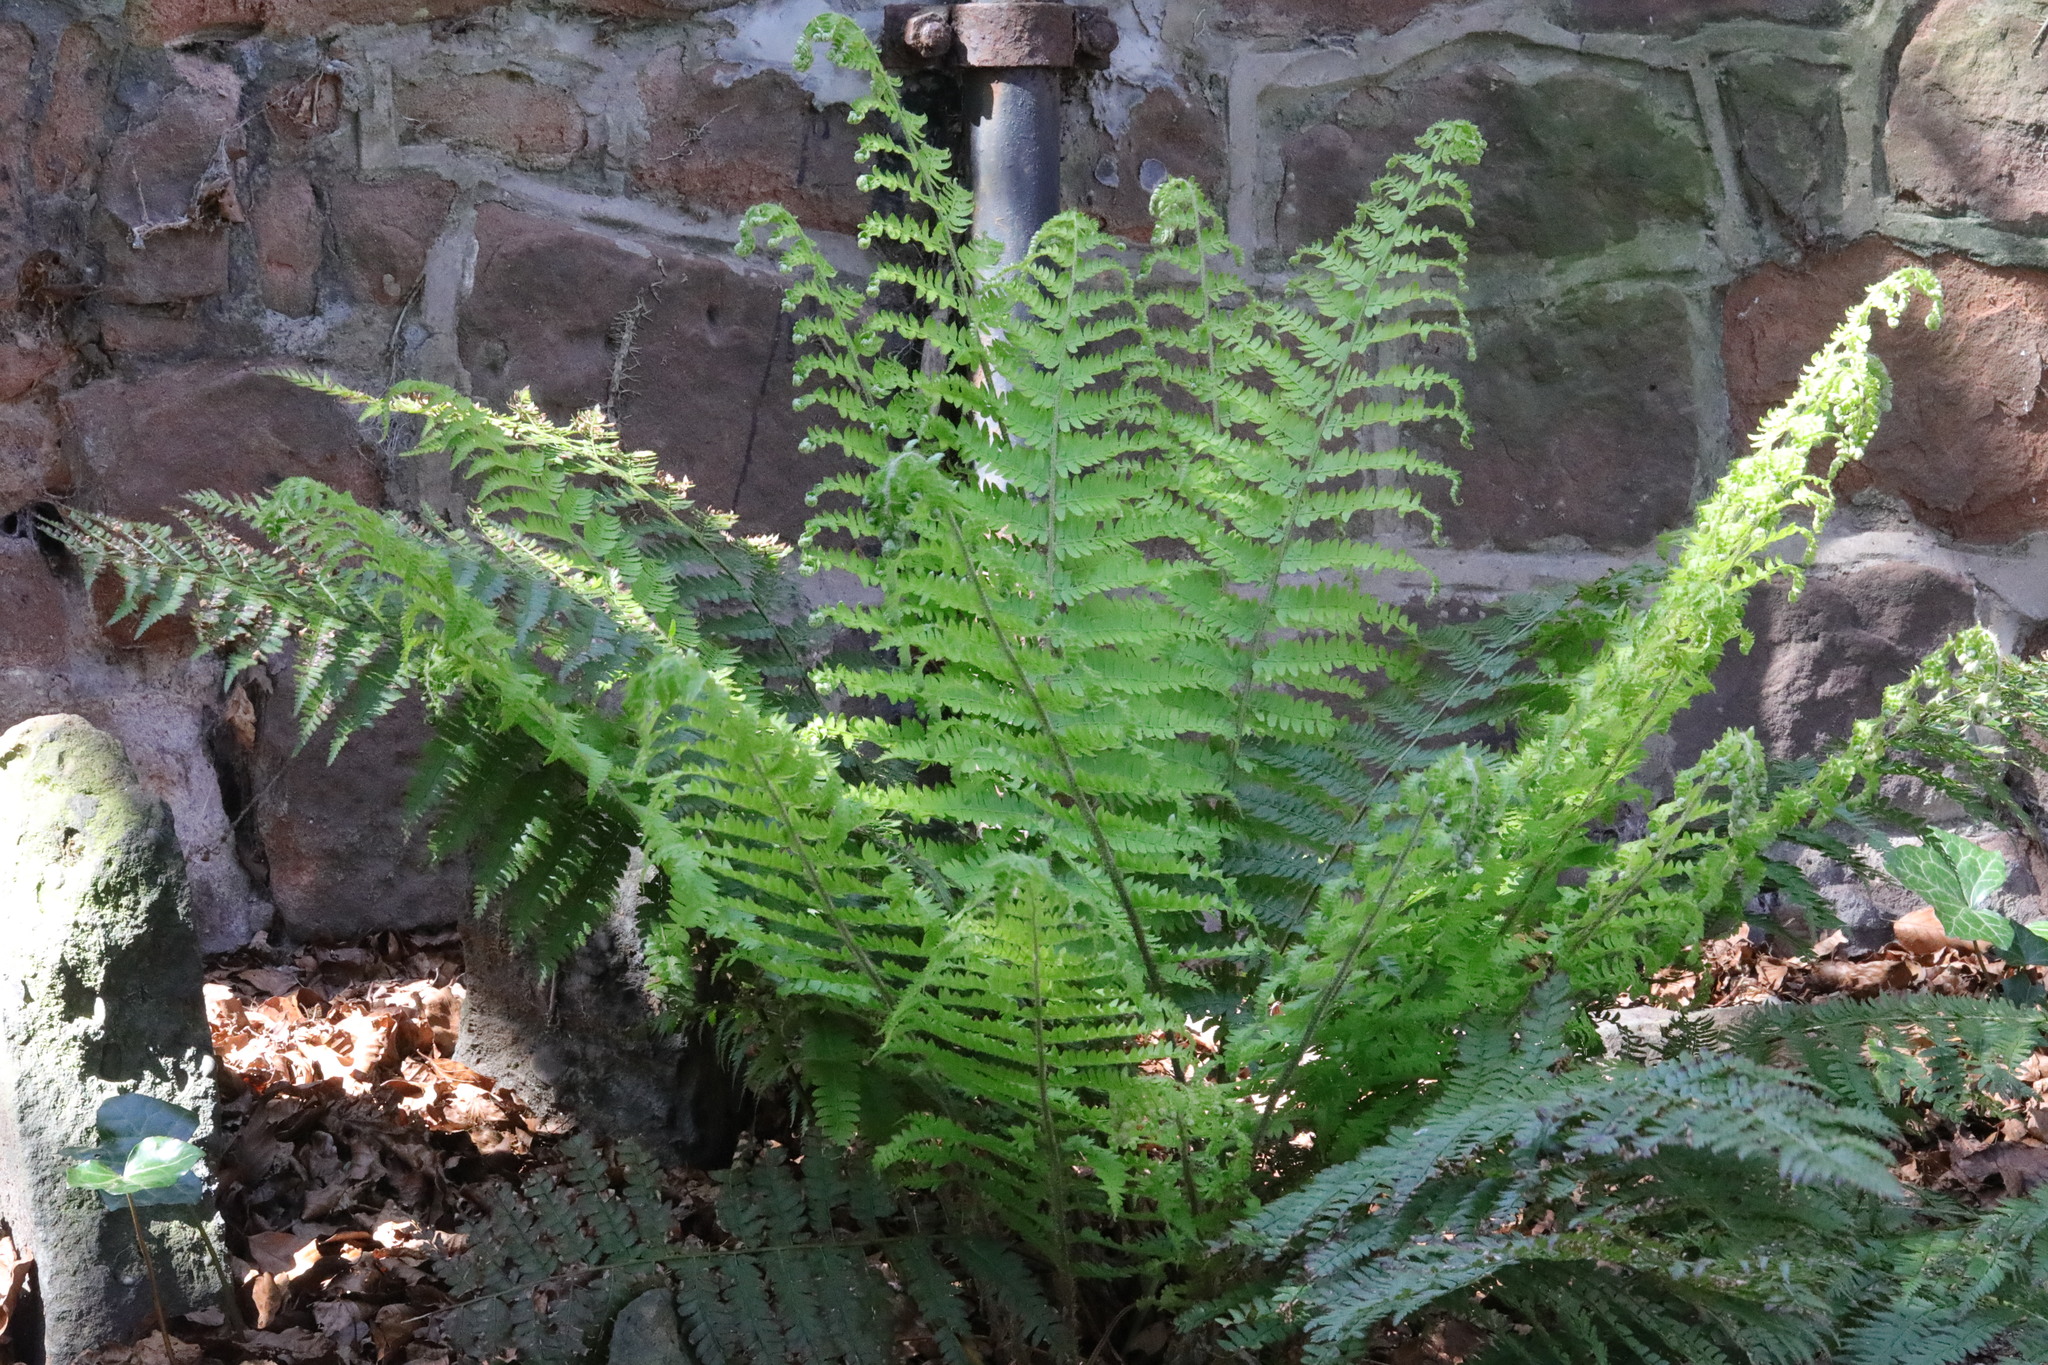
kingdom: Plantae
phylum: Tracheophyta
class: Polypodiopsida
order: Polypodiales
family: Dryopteridaceae
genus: Polystichum
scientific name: Polystichum setiferum
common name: Soft shield-fern
